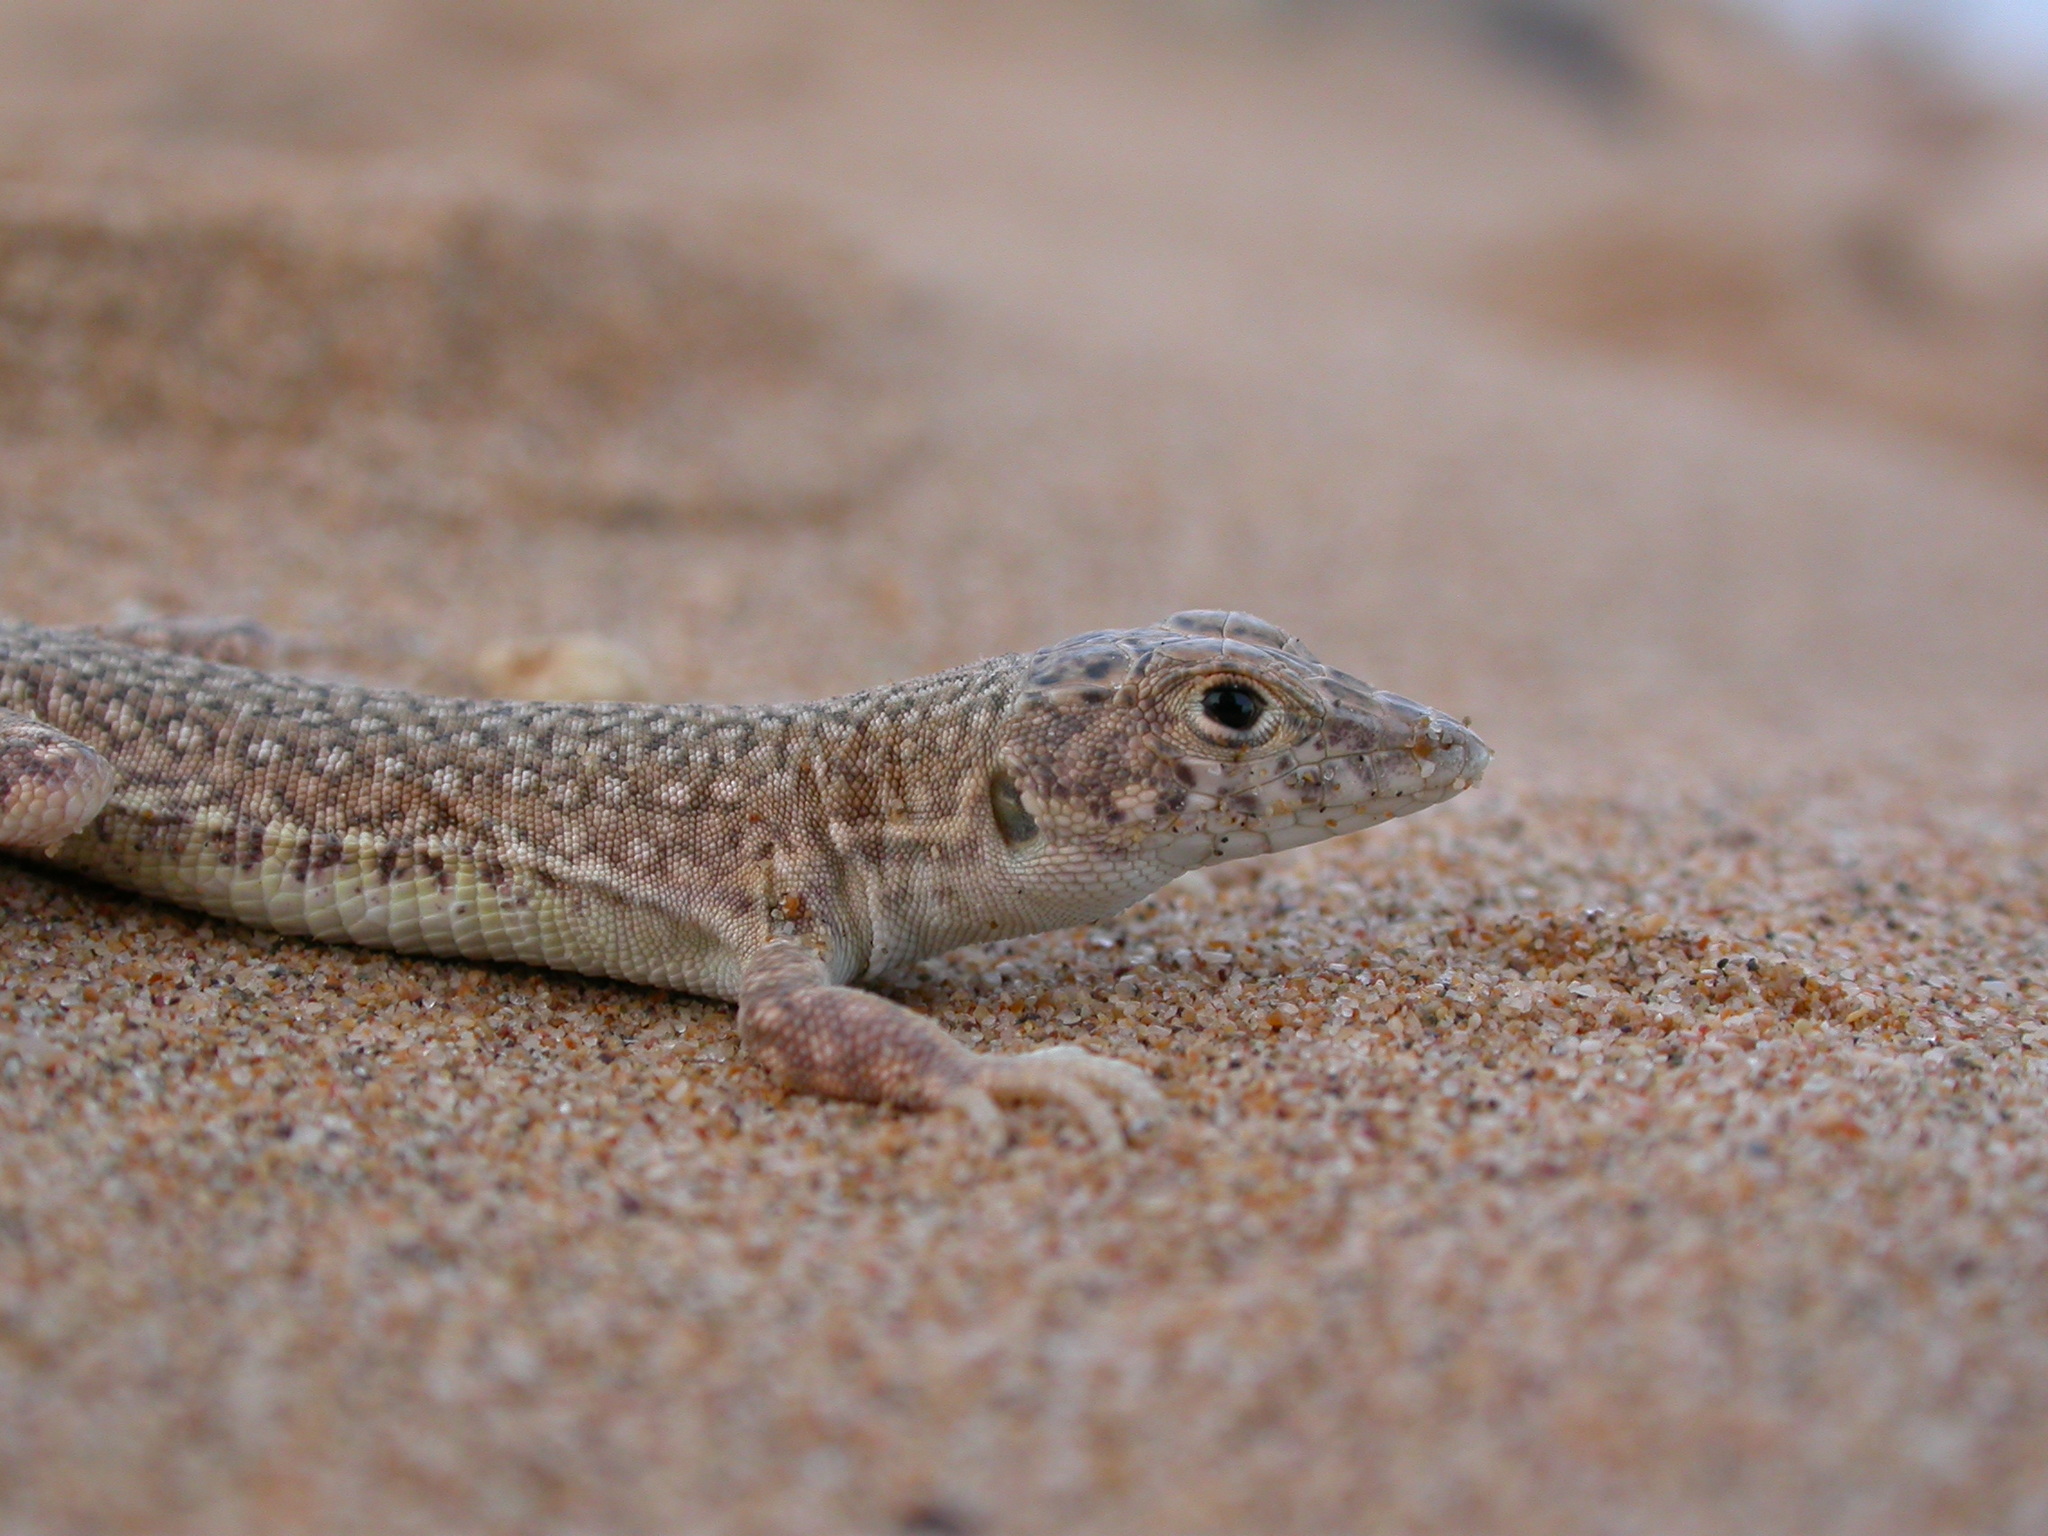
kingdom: Animalia
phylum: Chordata
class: Squamata
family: Lacertidae
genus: Acanthodactylus
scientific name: Acanthodactylus aureus
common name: Golden fringe-fingered lizard
